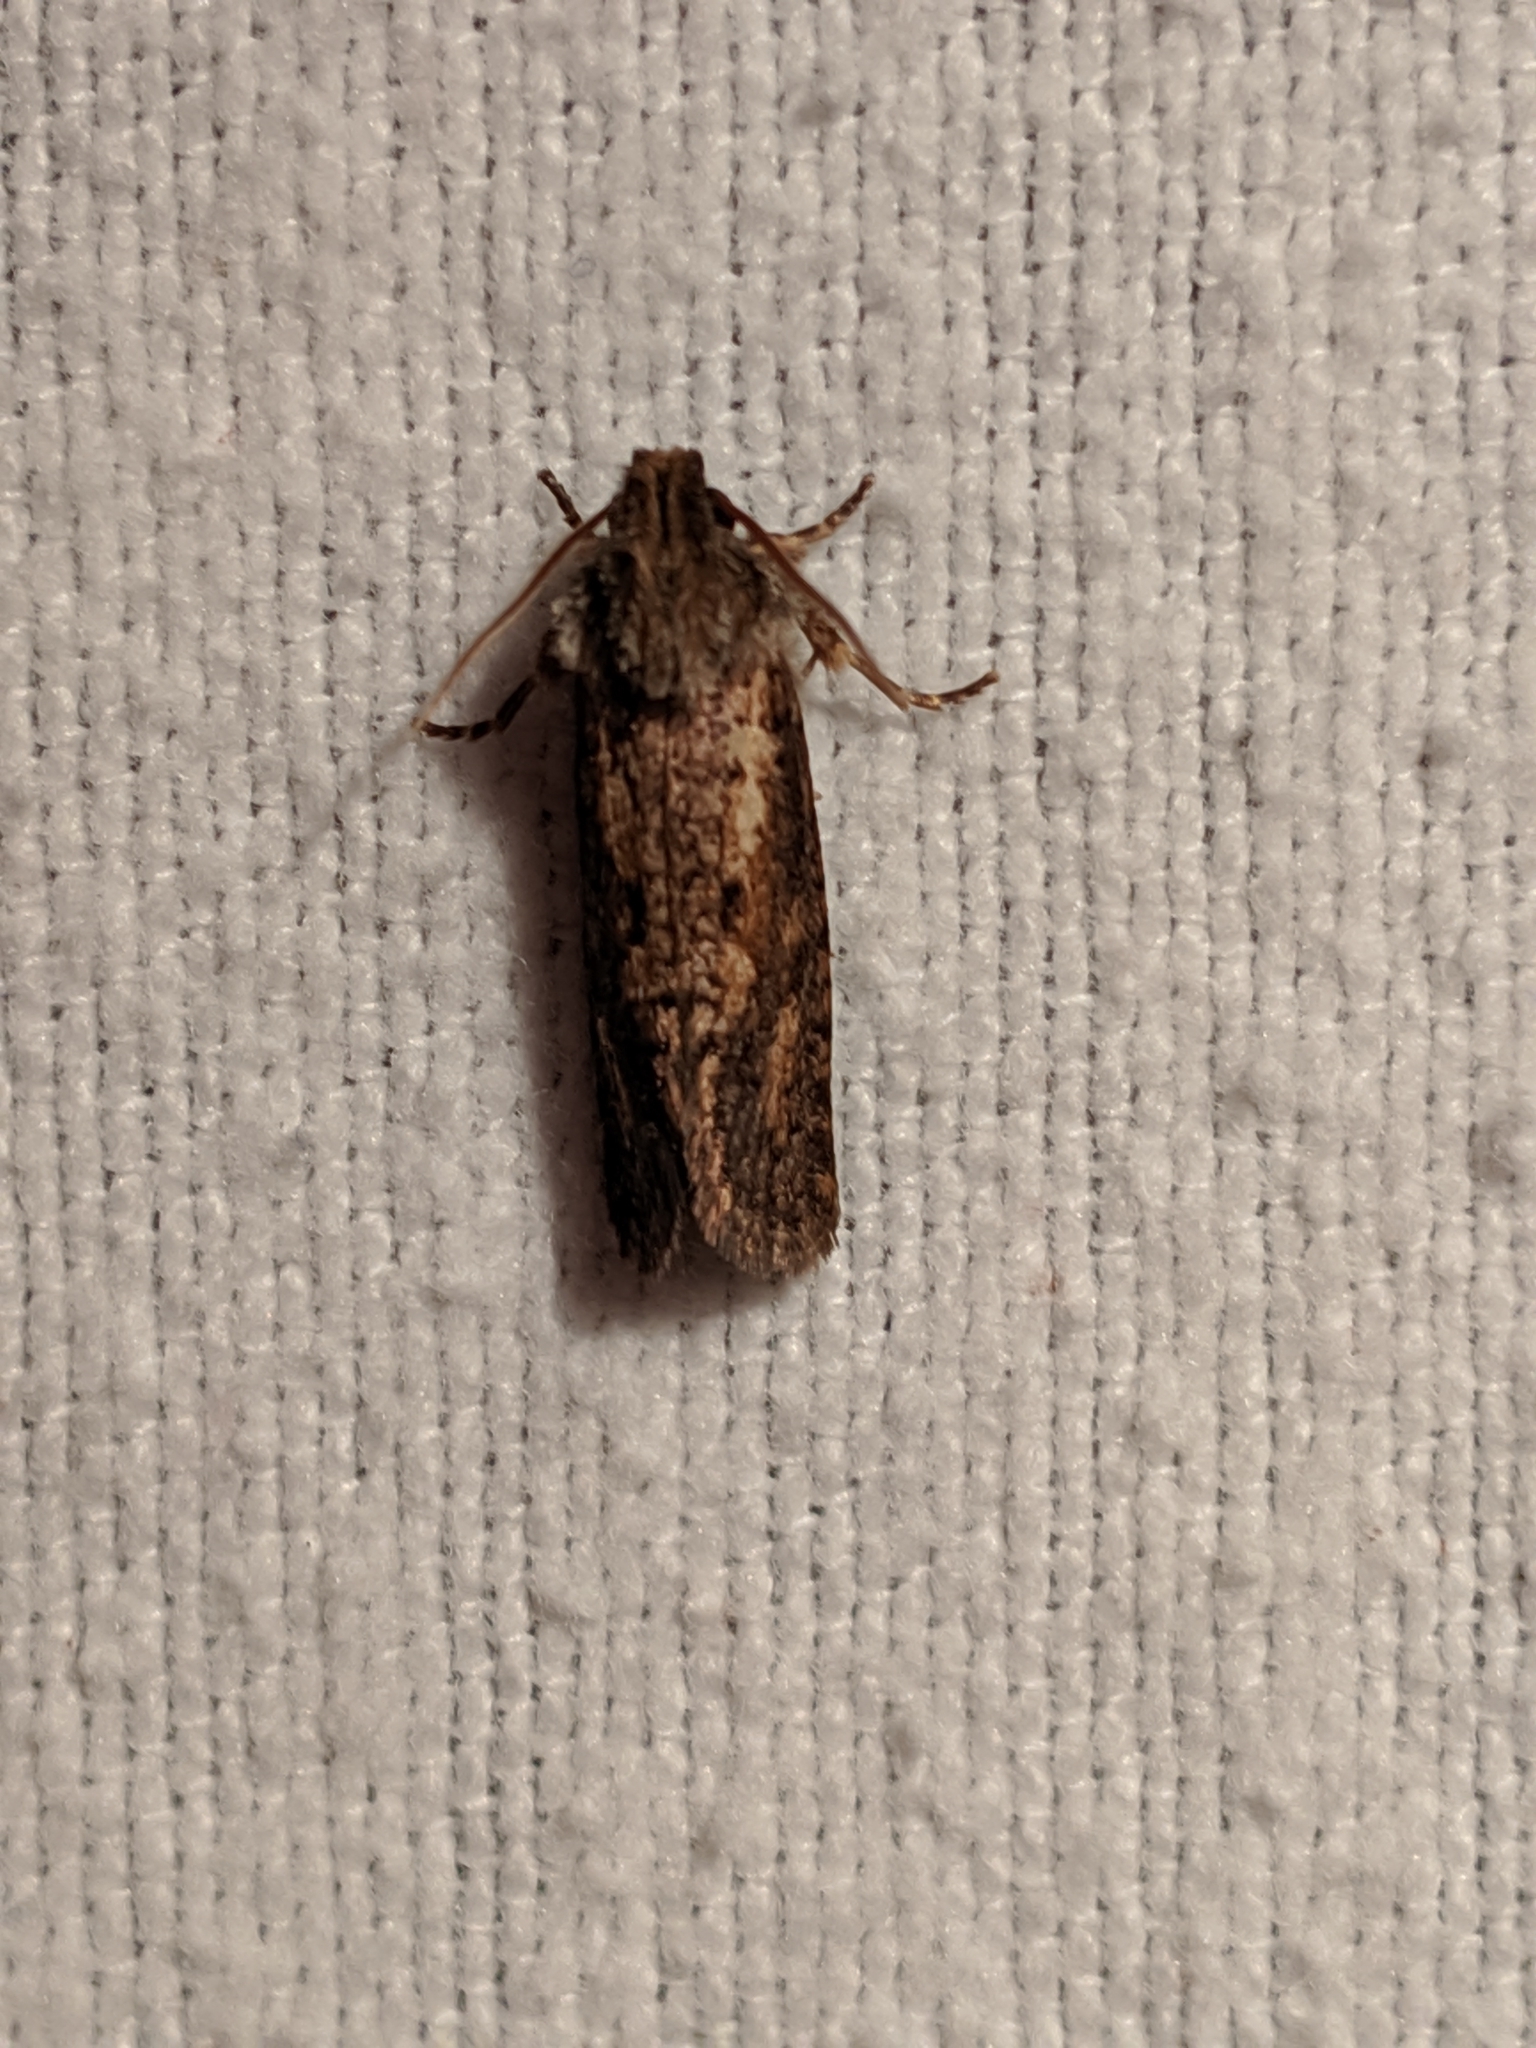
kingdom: Animalia
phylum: Arthropoda
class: Insecta
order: Lepidoptera
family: Noctuidae
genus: Agrotis
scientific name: Agrotis ipsilon
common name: Dark sword-grass
